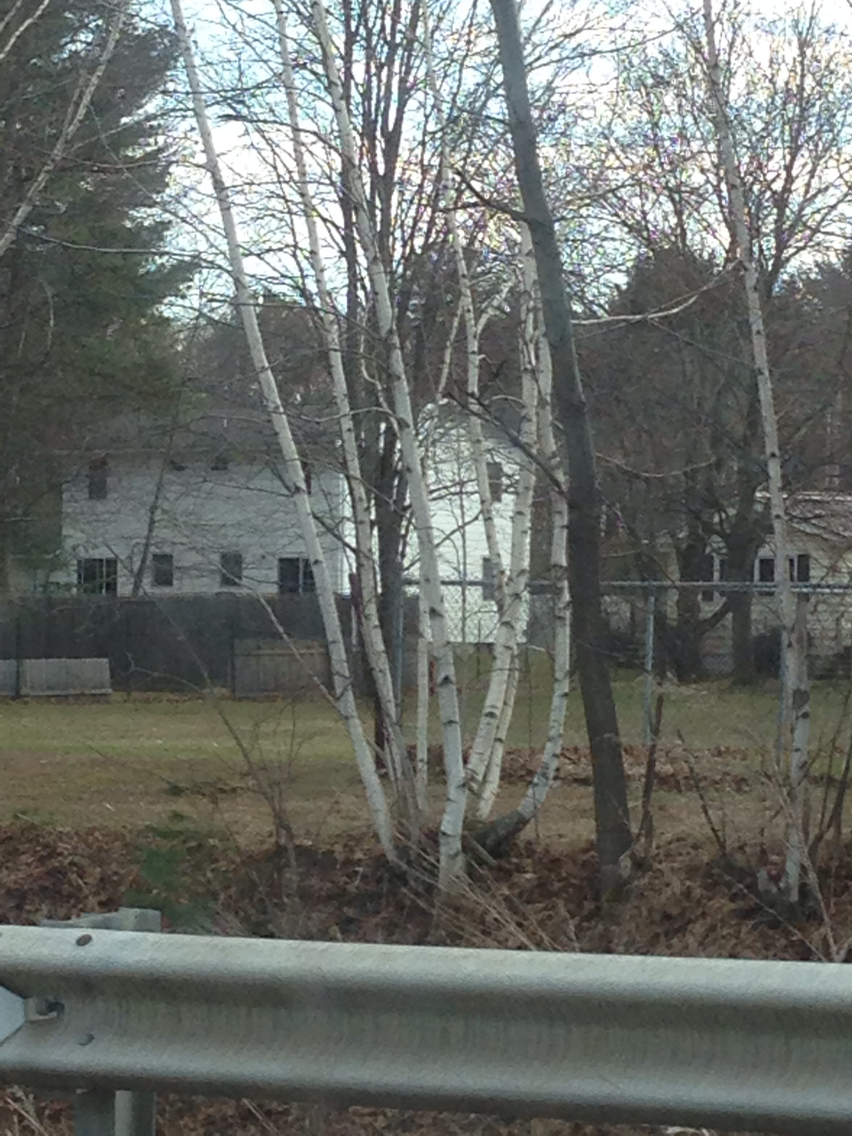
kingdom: Plantae
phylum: Tracheophyta
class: Magnoliopsida
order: Fagales
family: Betulaceae
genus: Betula
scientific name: Betula populifolia
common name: Fire birch
